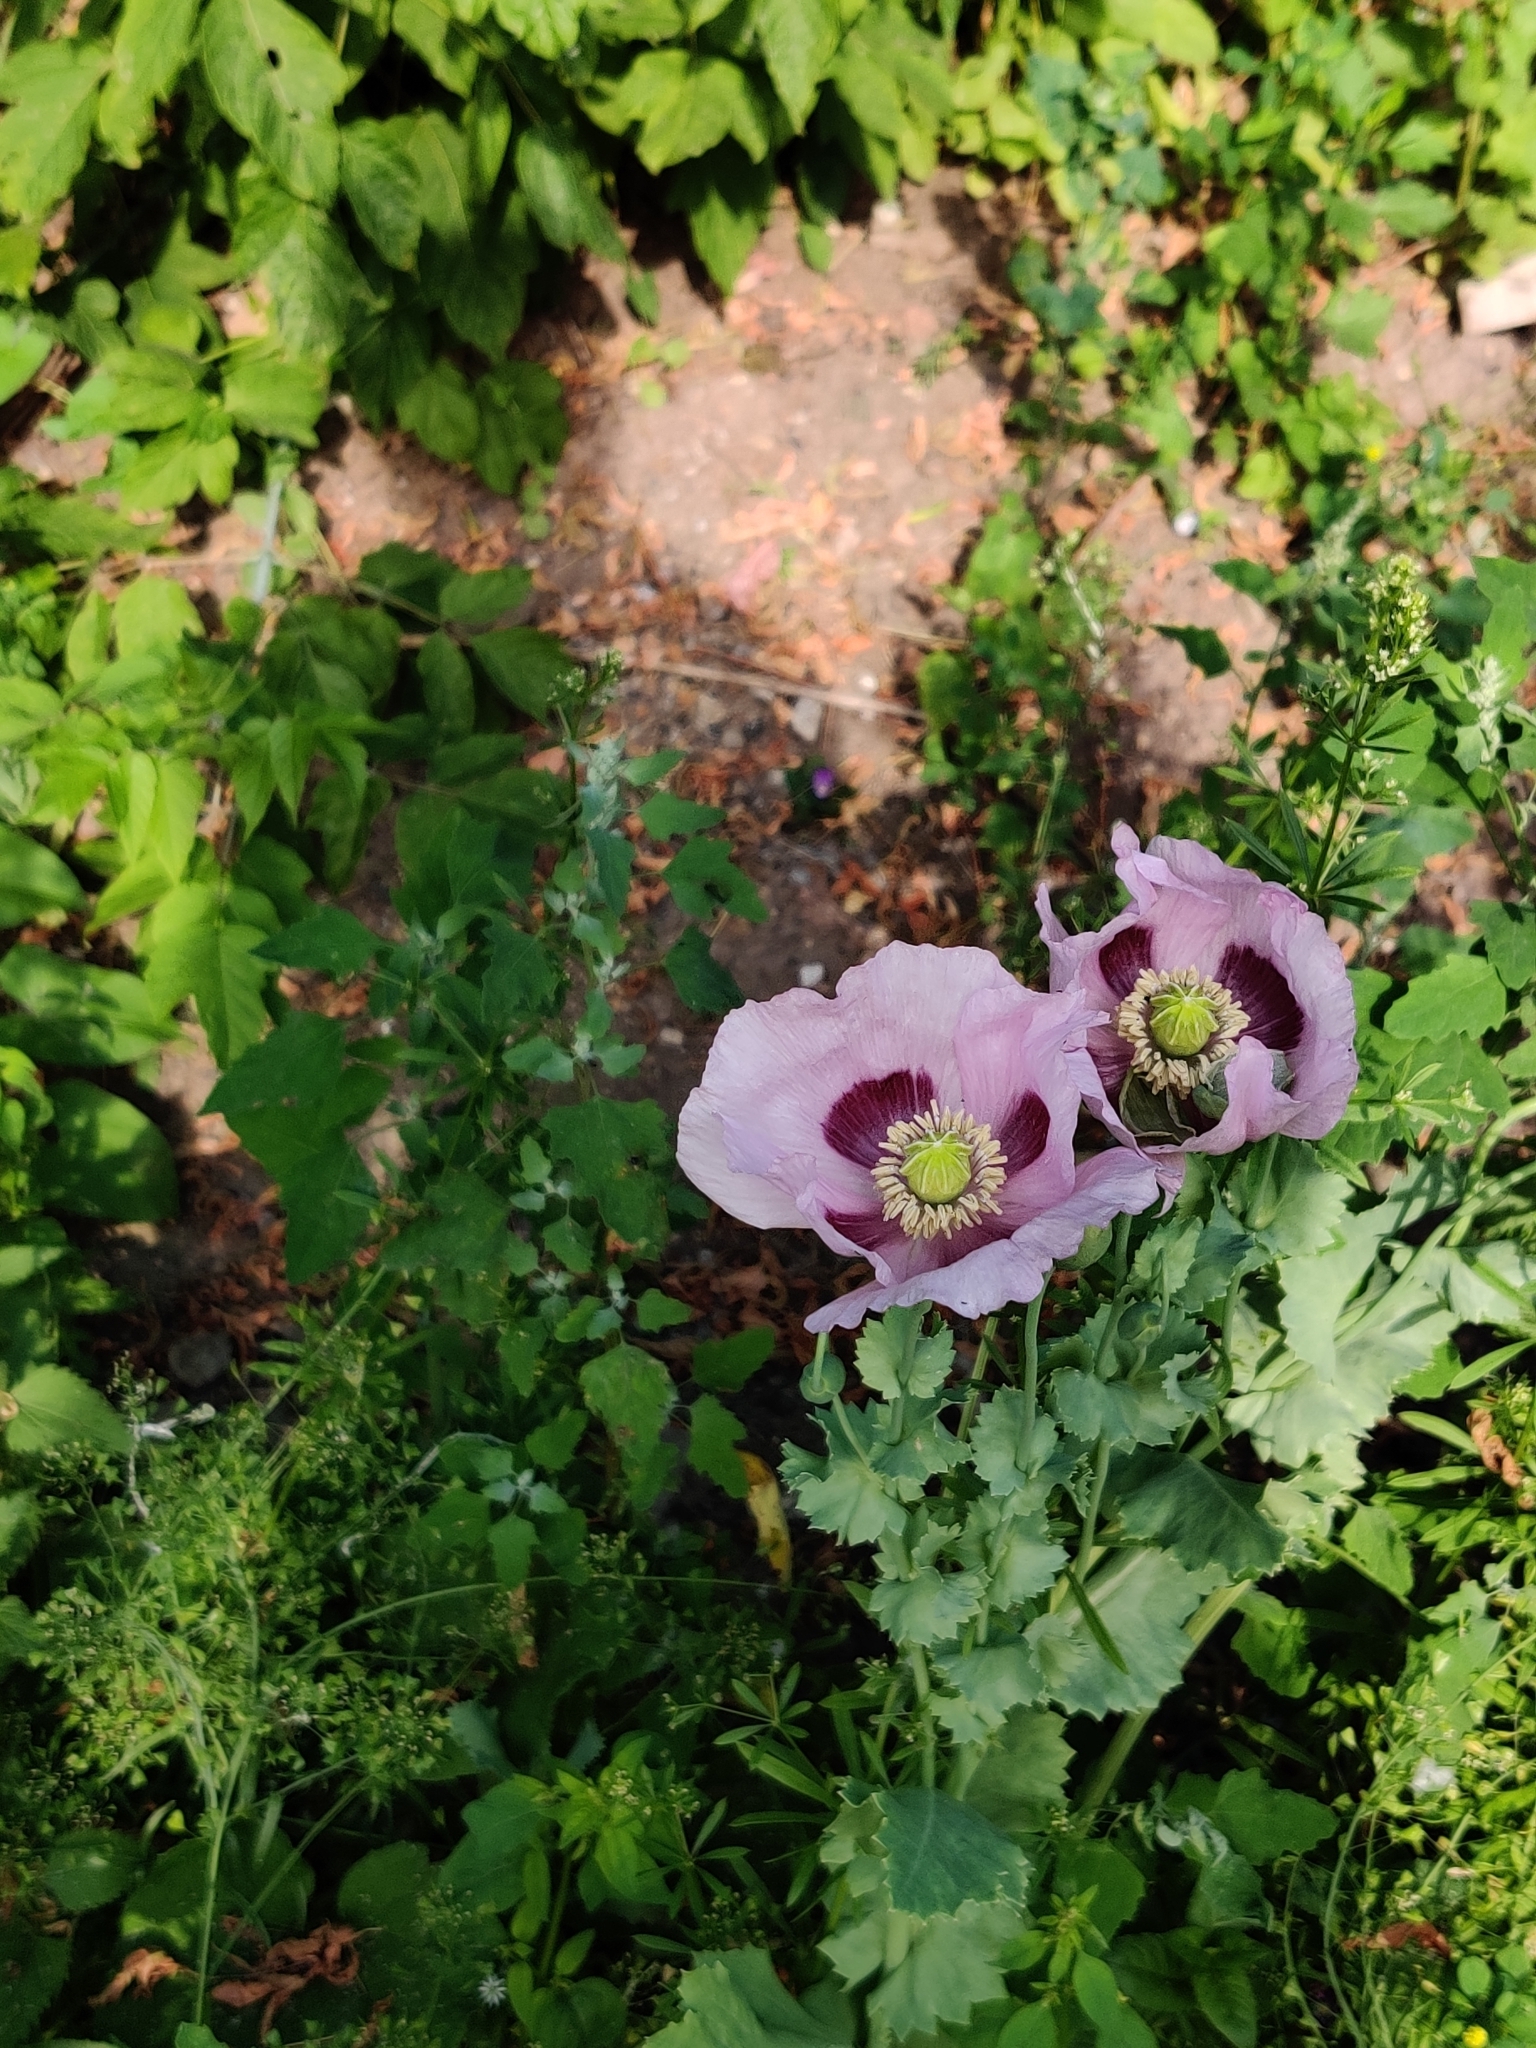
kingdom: Plantae
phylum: Tracheophyta
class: Magnoliopsida
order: Ranunculales
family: Papaveraceae
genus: Papaver
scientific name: Papaver somniferum
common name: Opium poppy
